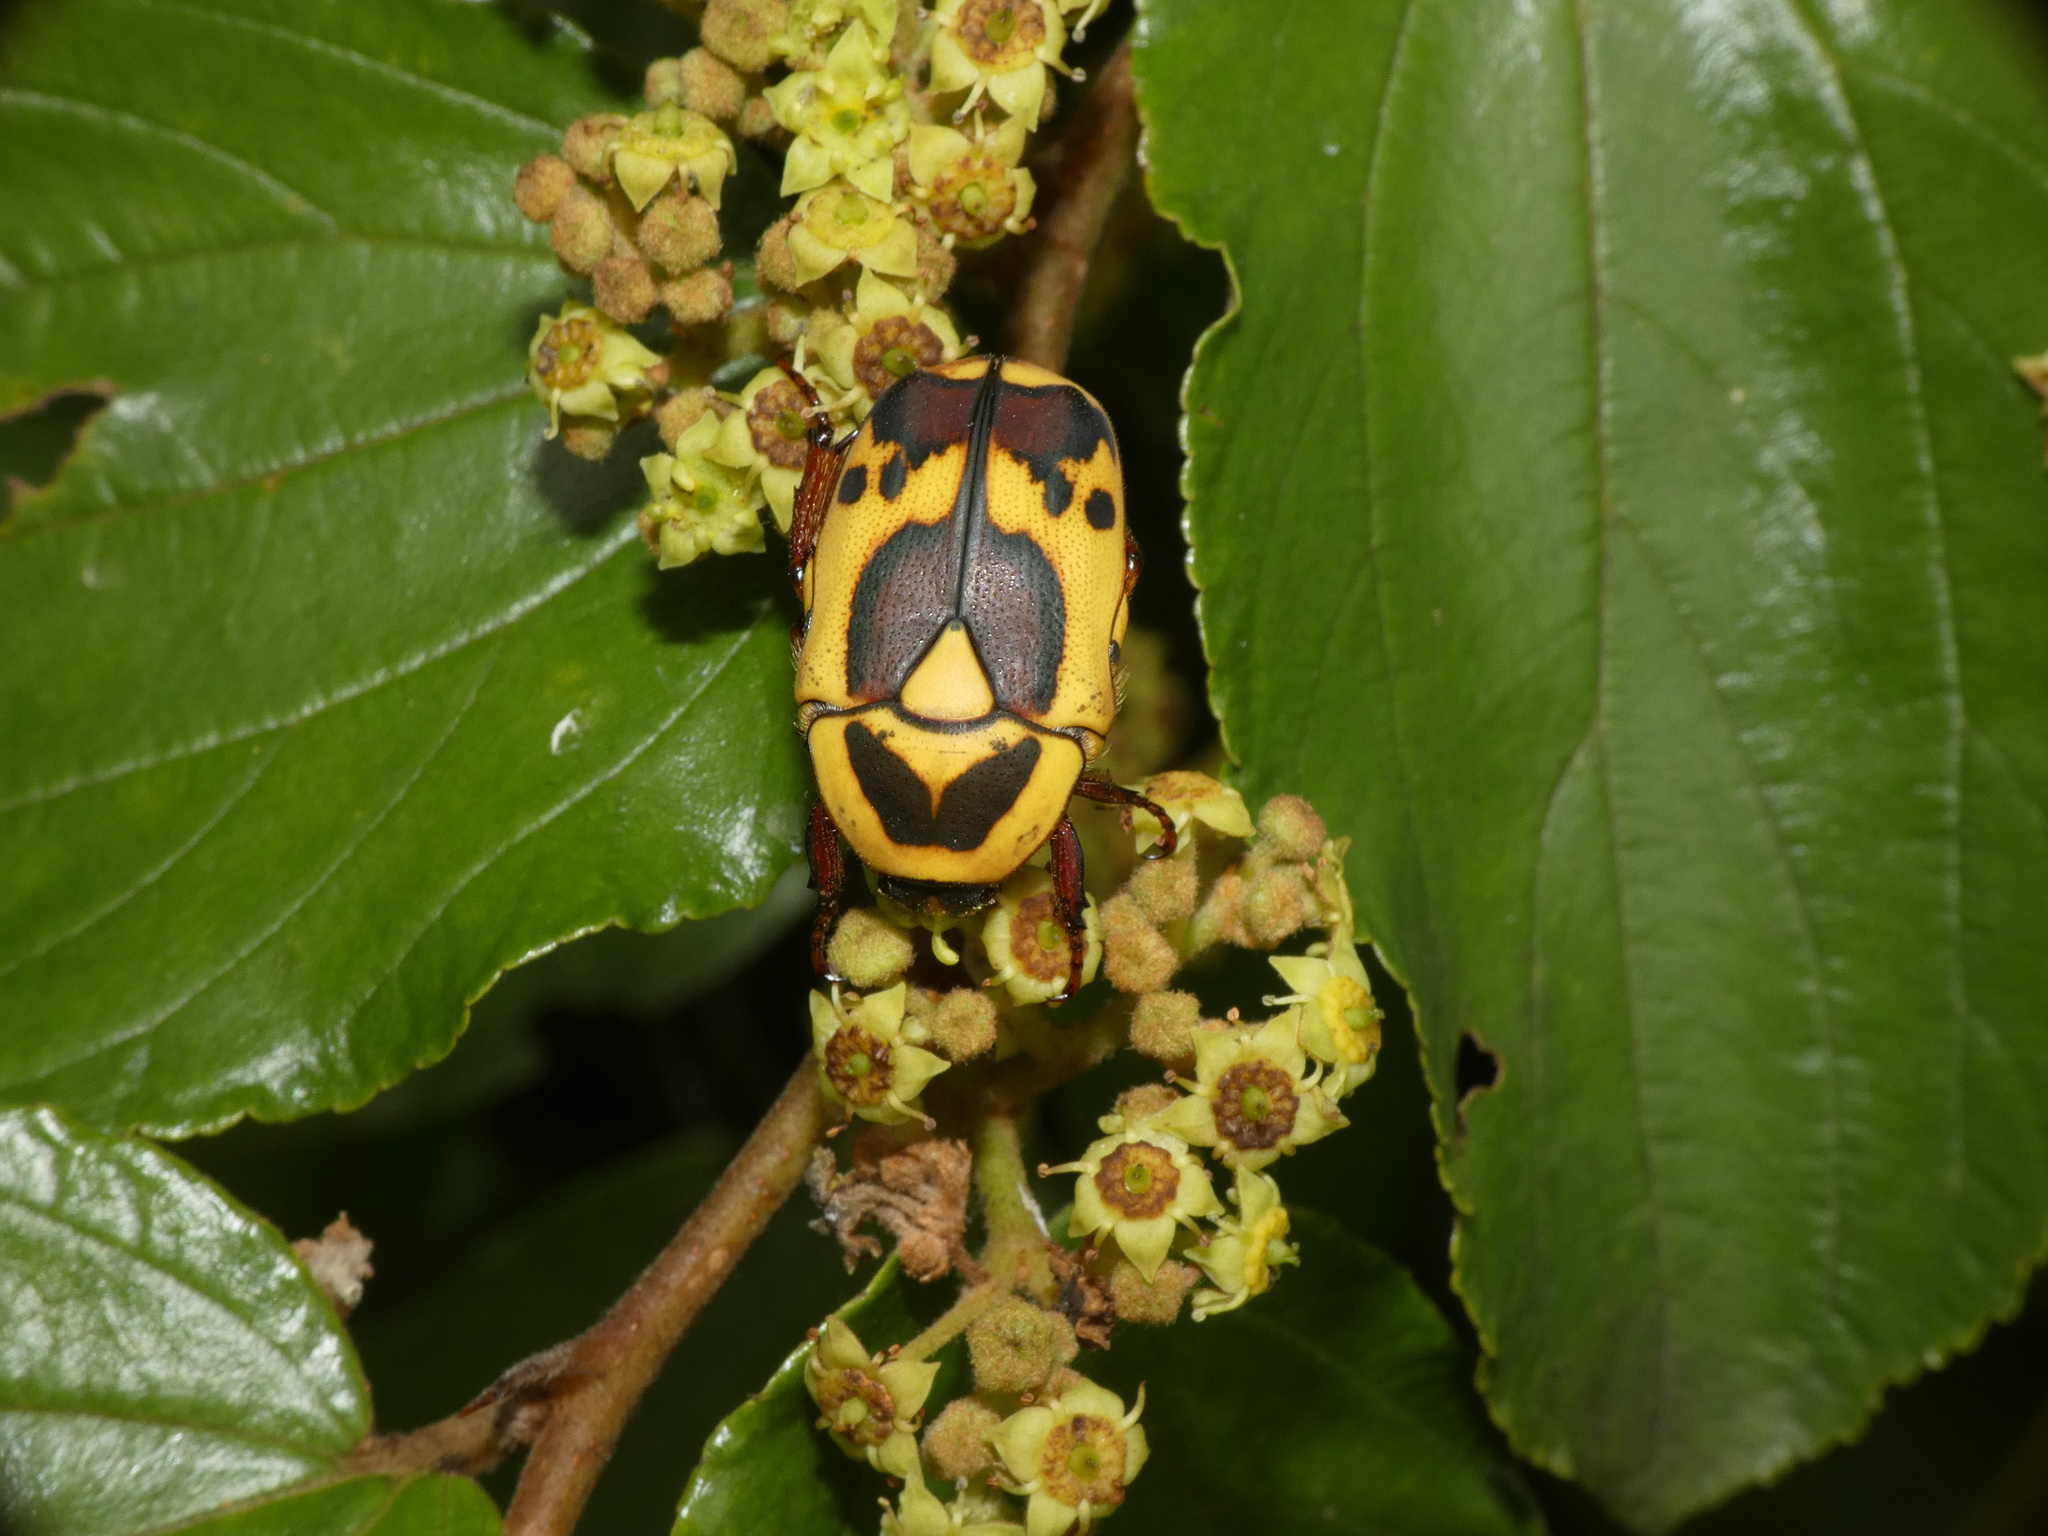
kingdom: Animalia
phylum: Arthropoda
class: Insecta
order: Coleoptera
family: Scarabaeidae
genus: Pachnoda
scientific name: Pachnoda discolor
